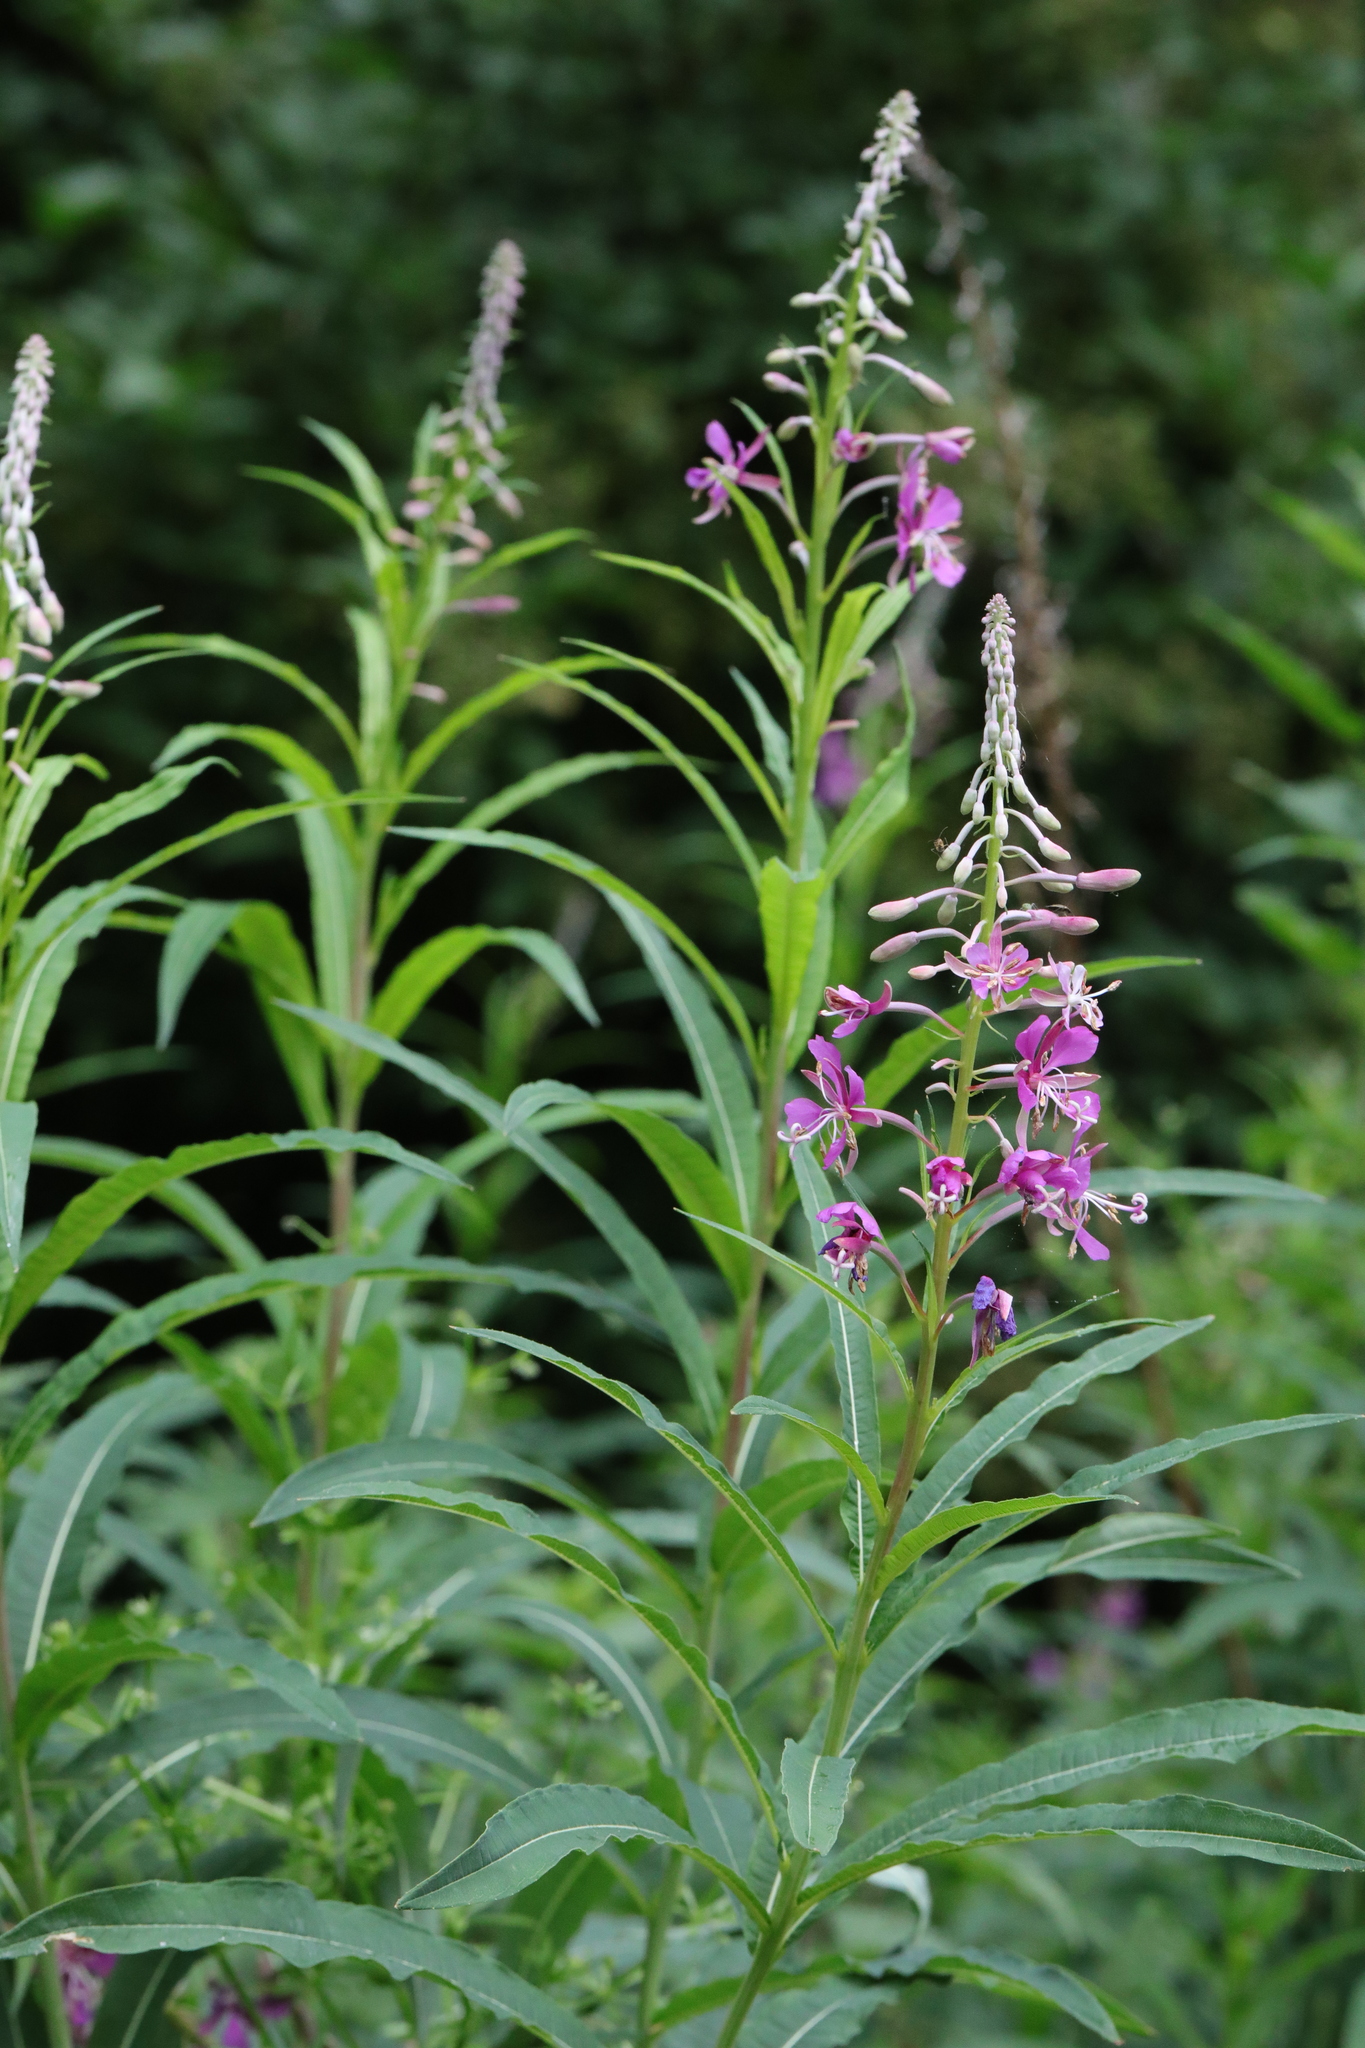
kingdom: Plantae
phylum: Tracheophyta
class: Magnoliopsida
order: Myrtales
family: Onagraceae
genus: Chamaenerion
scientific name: Chamaenerion angustifolium
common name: Fireweed
